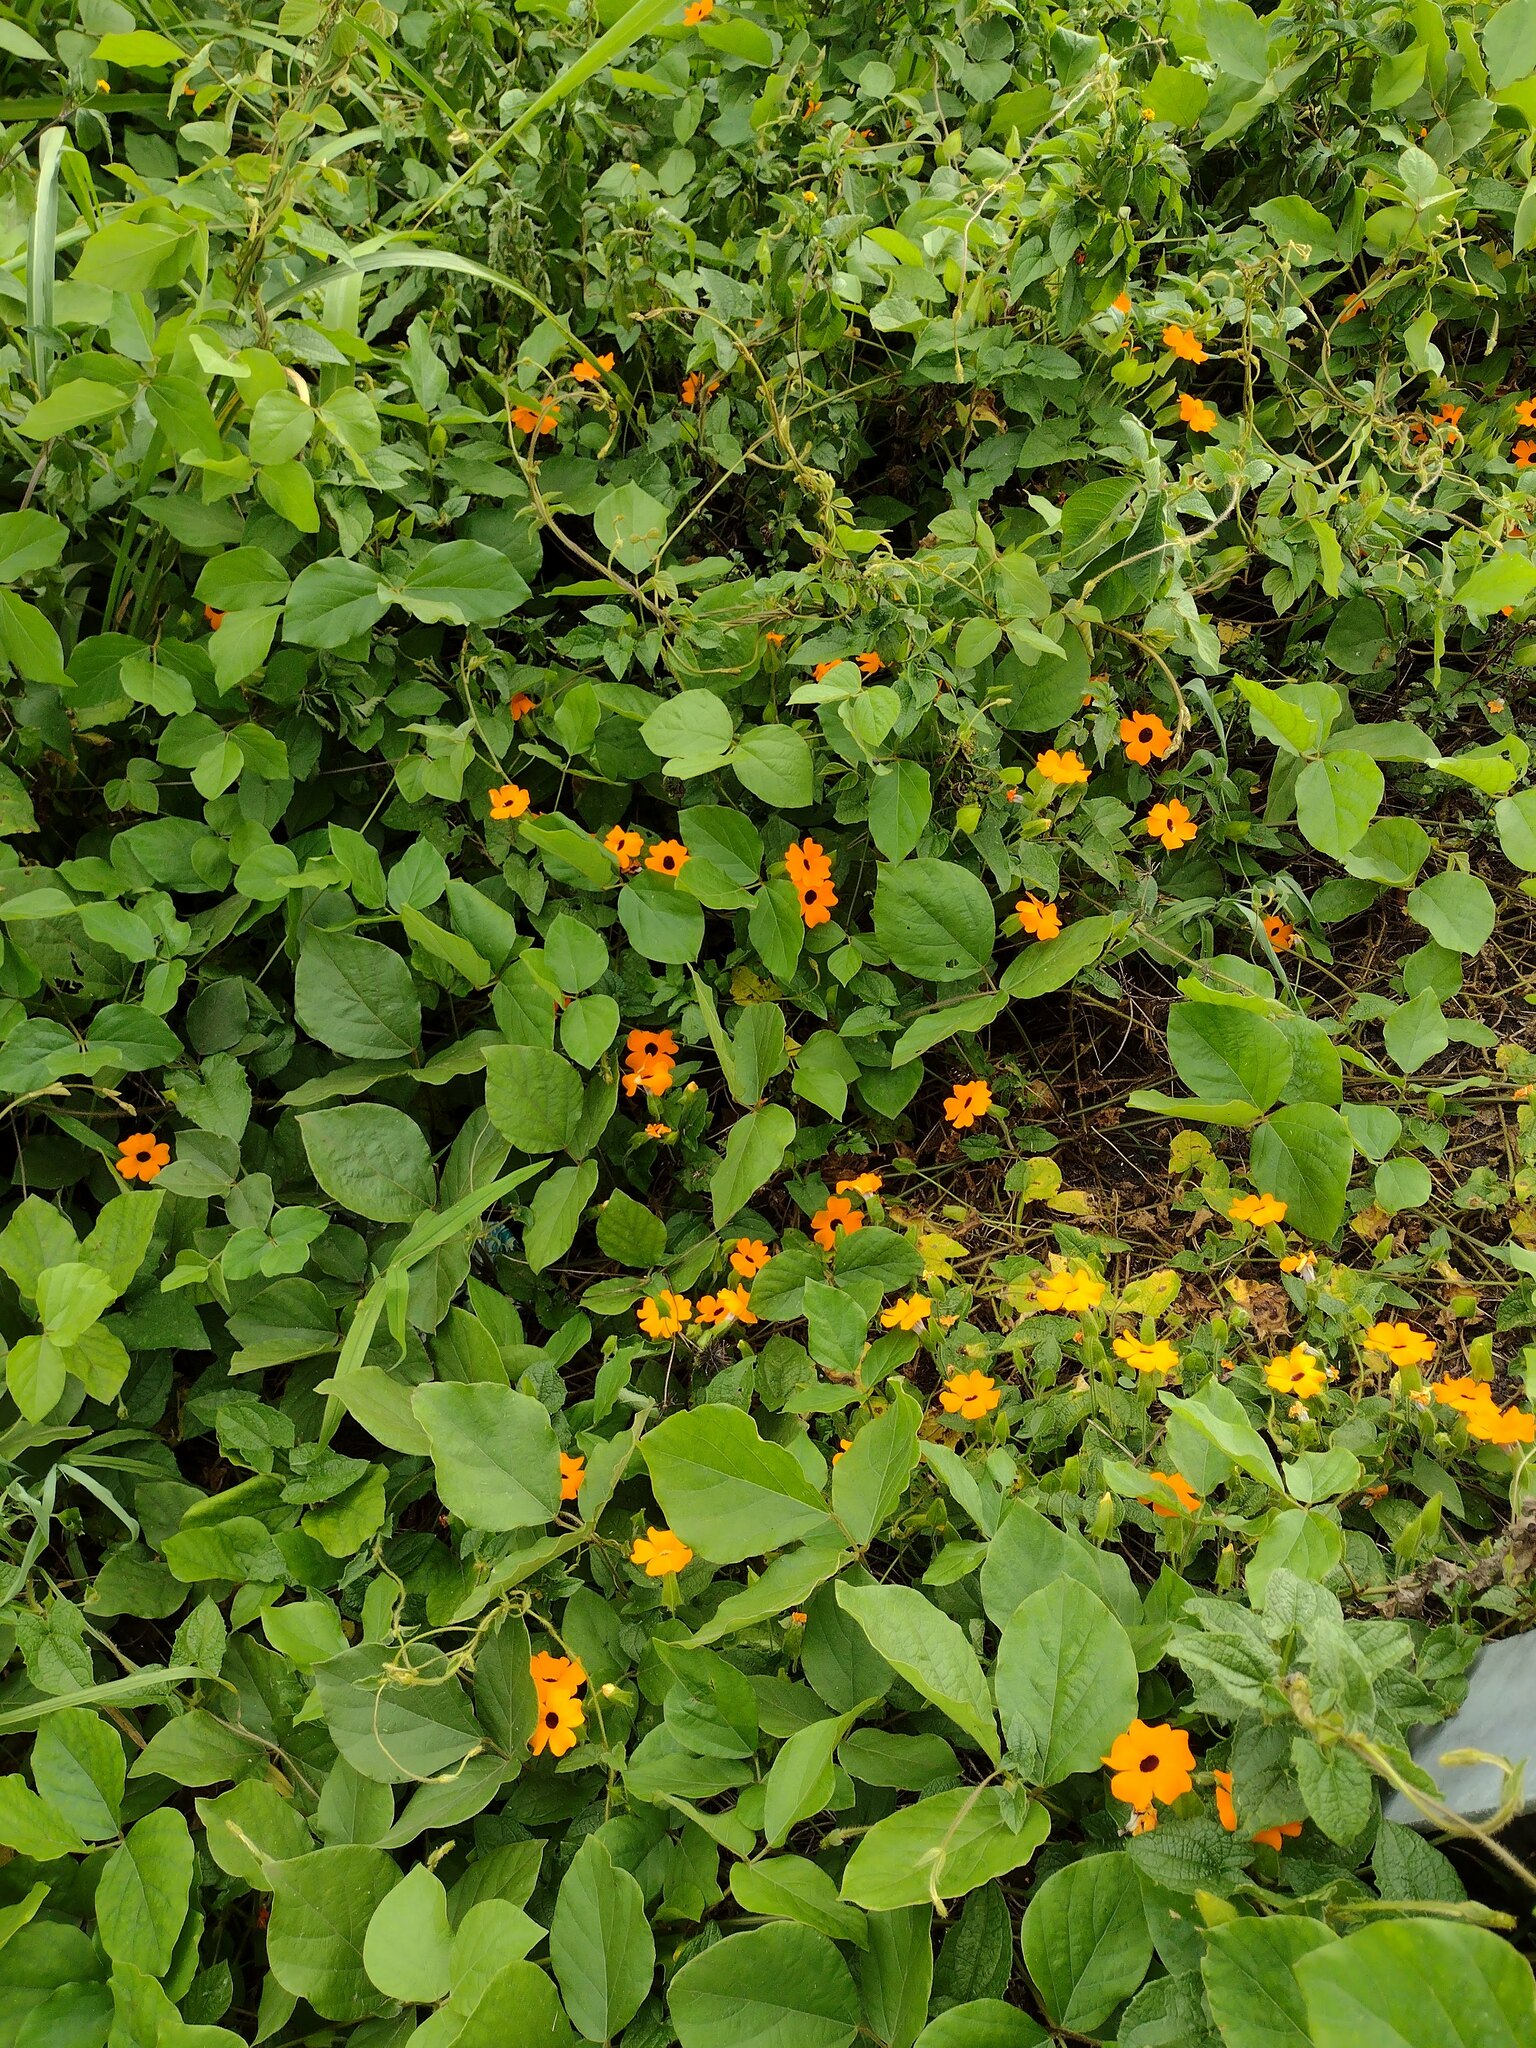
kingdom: Plantae
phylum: Tracheophyta
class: Magnoliopsida
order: Lamiales
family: Acanthaceae
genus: Thunbergia
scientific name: Thunbergia alata
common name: Blackeyed susan vine
